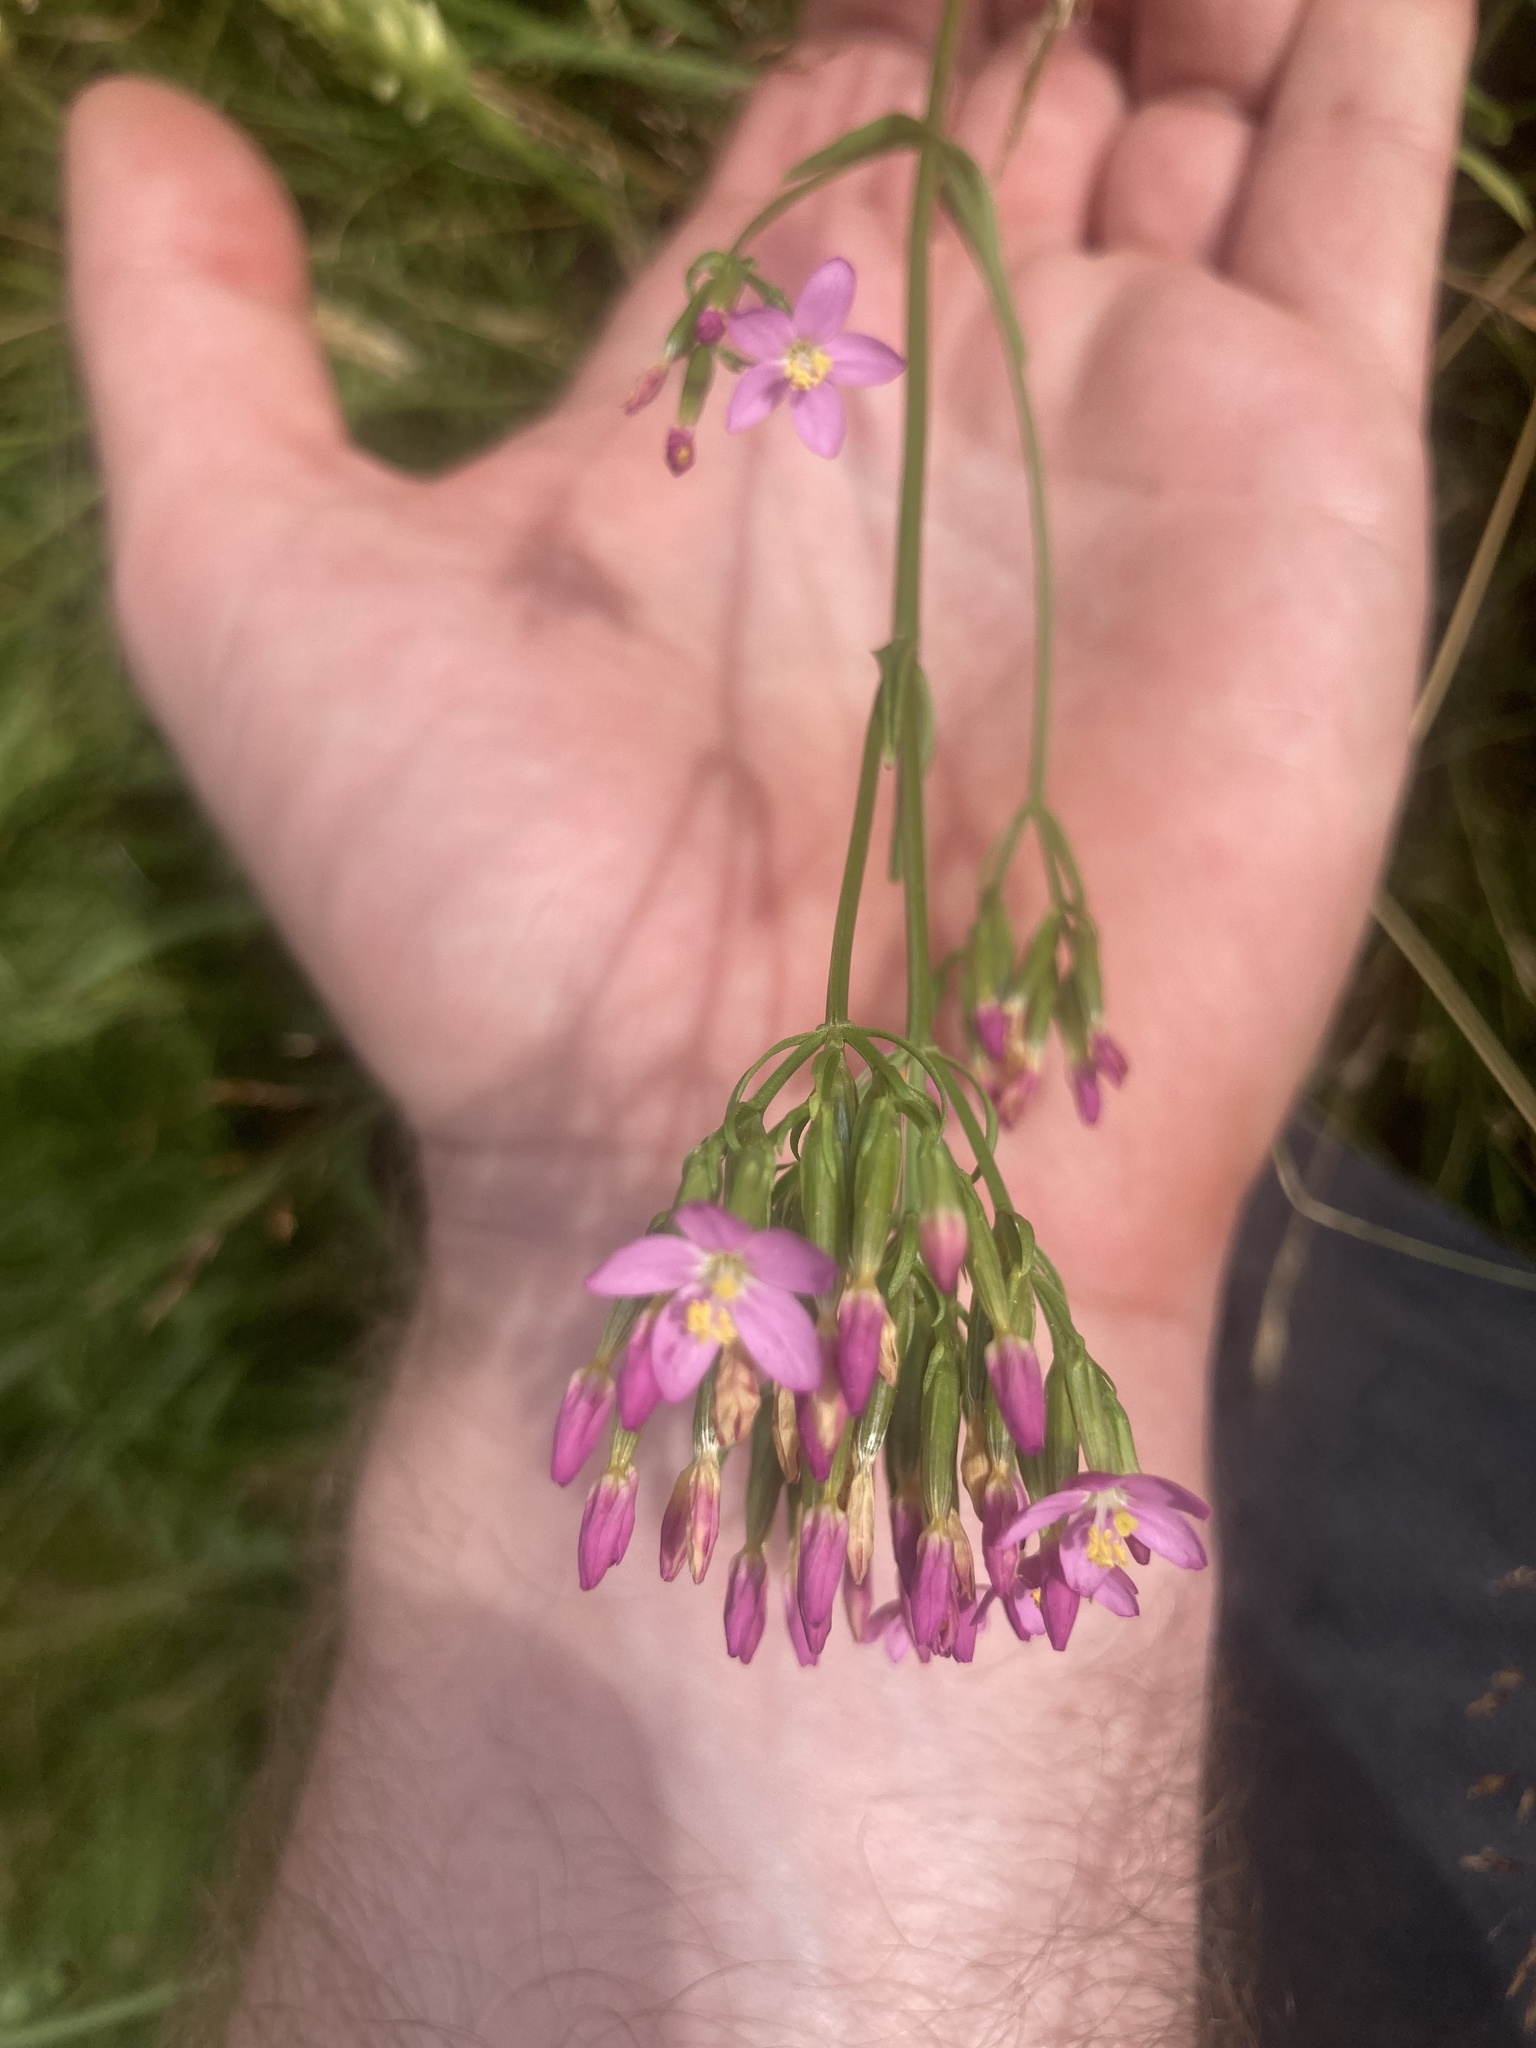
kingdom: Plantae
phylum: Tracheophyta
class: Magnoliopsida
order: Gentianales
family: Gentianaceae
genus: Centaurium
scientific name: Centaurium erythraea
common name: Common centaury
